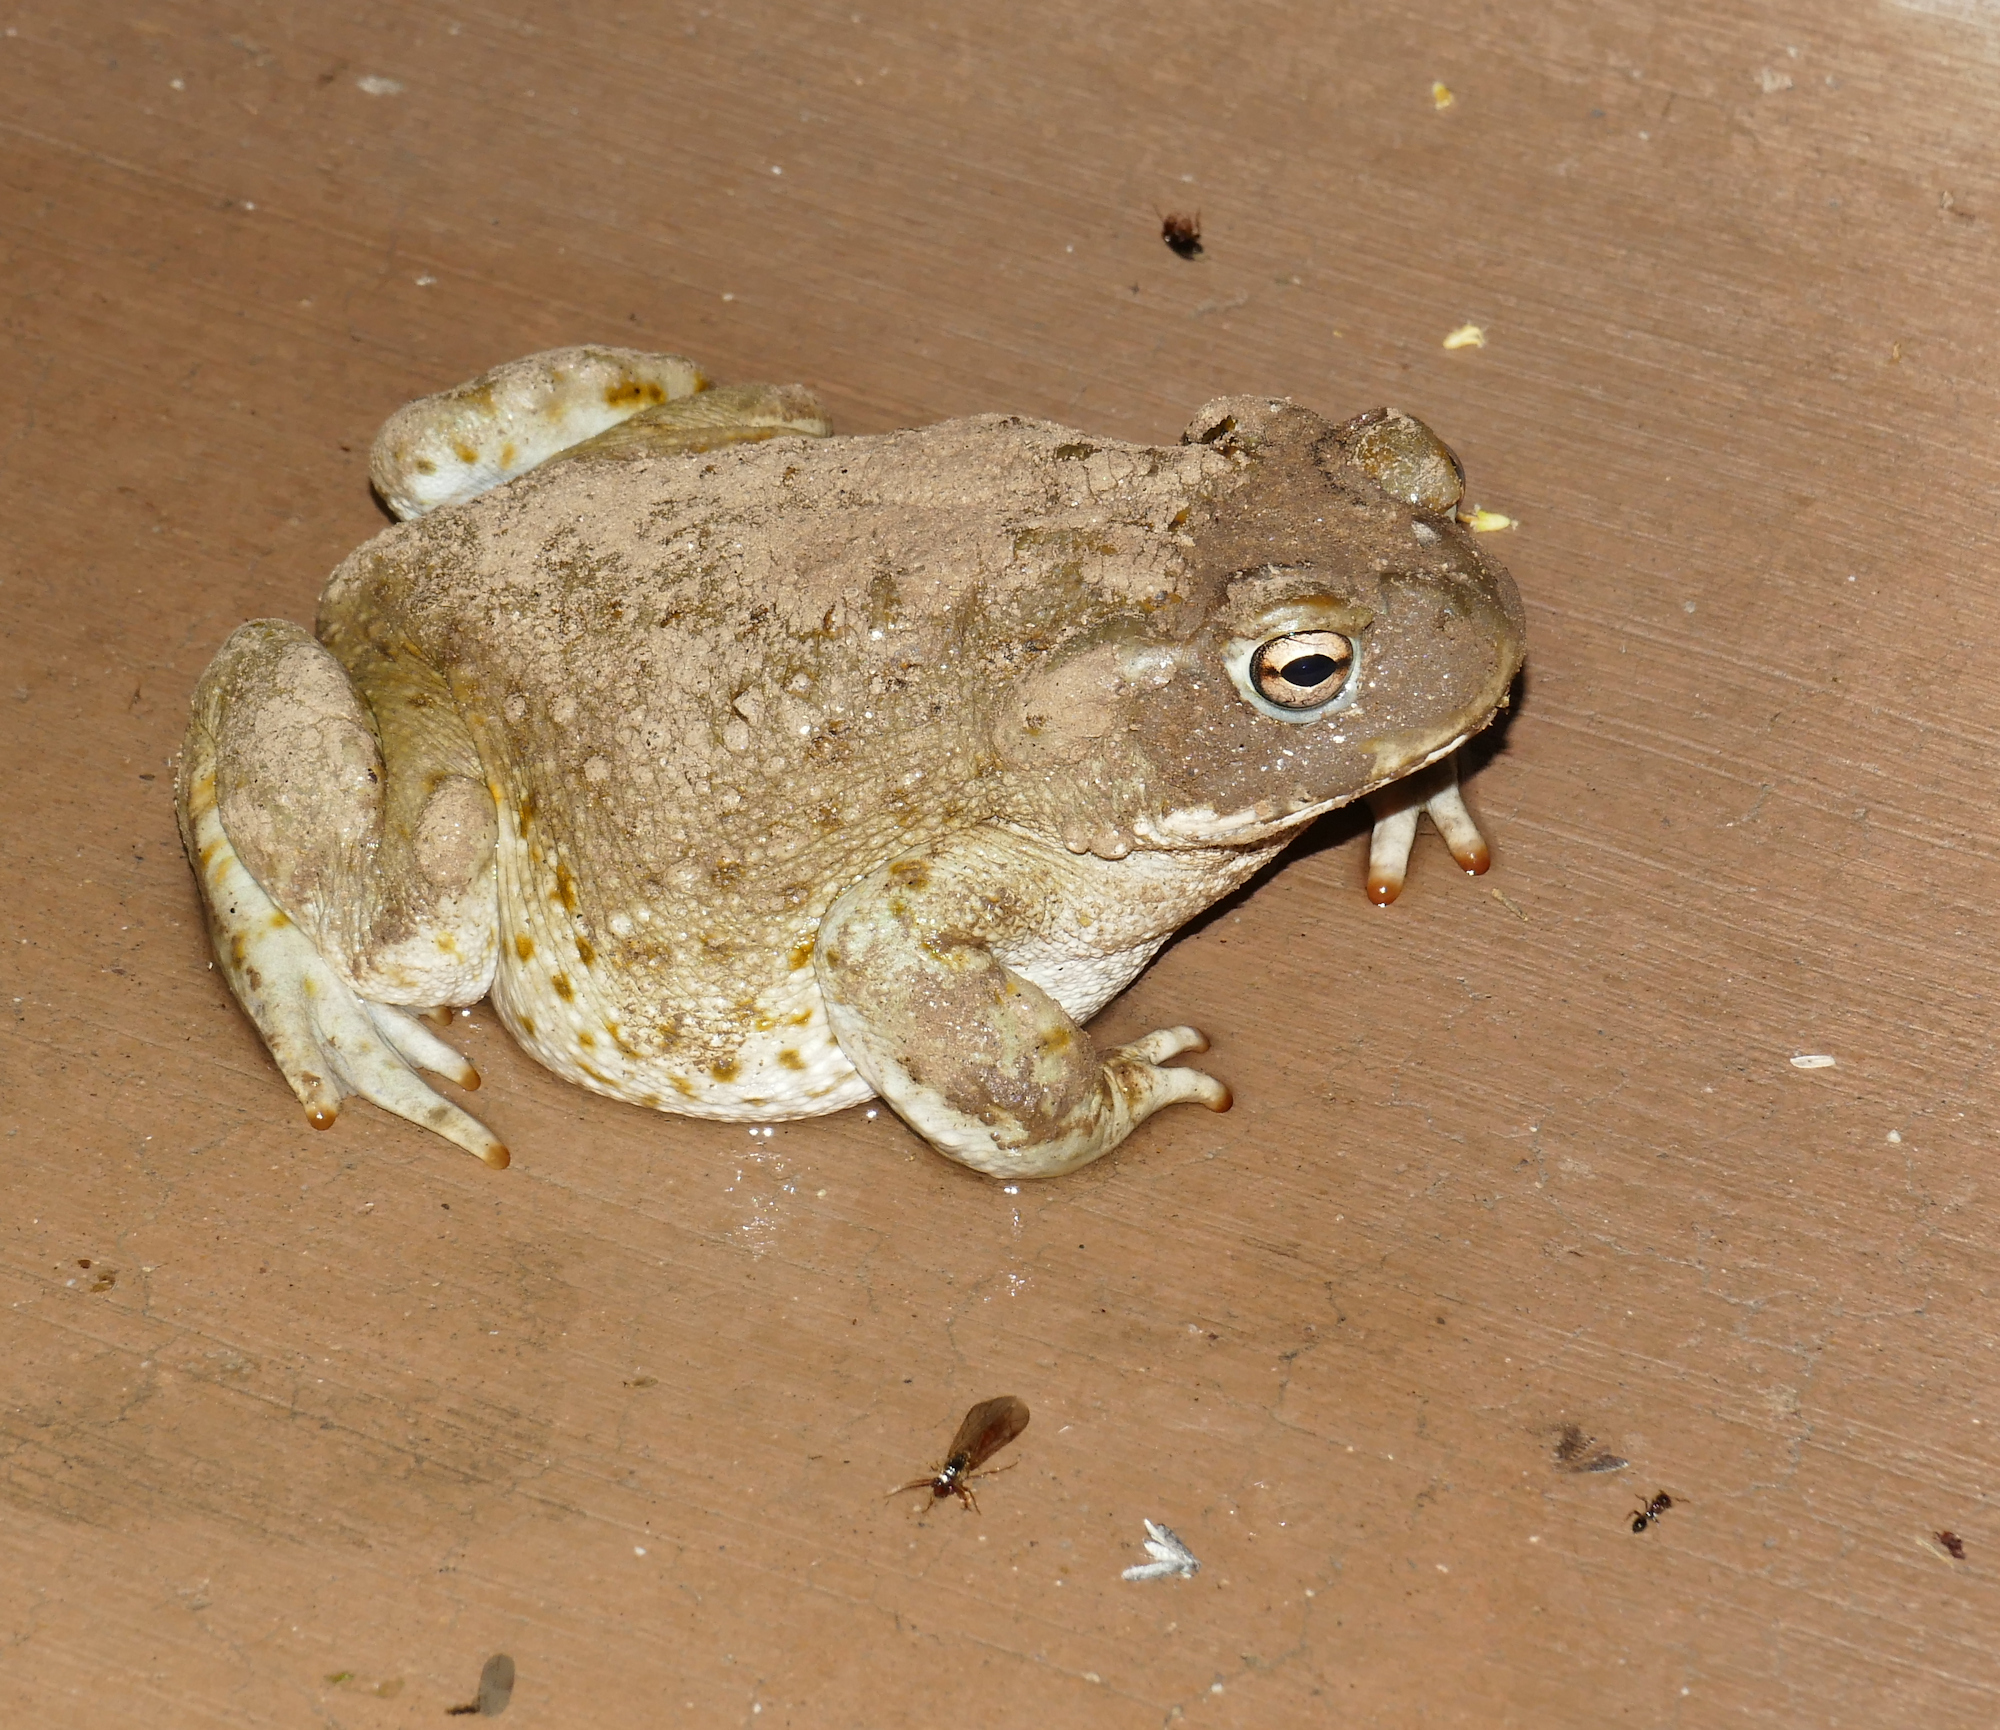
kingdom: Animalia
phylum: Chordata
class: Amphibia
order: Anura
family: Bufonidae
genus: Incilius
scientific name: Incilius alvarius
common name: Sonoran desert toad
